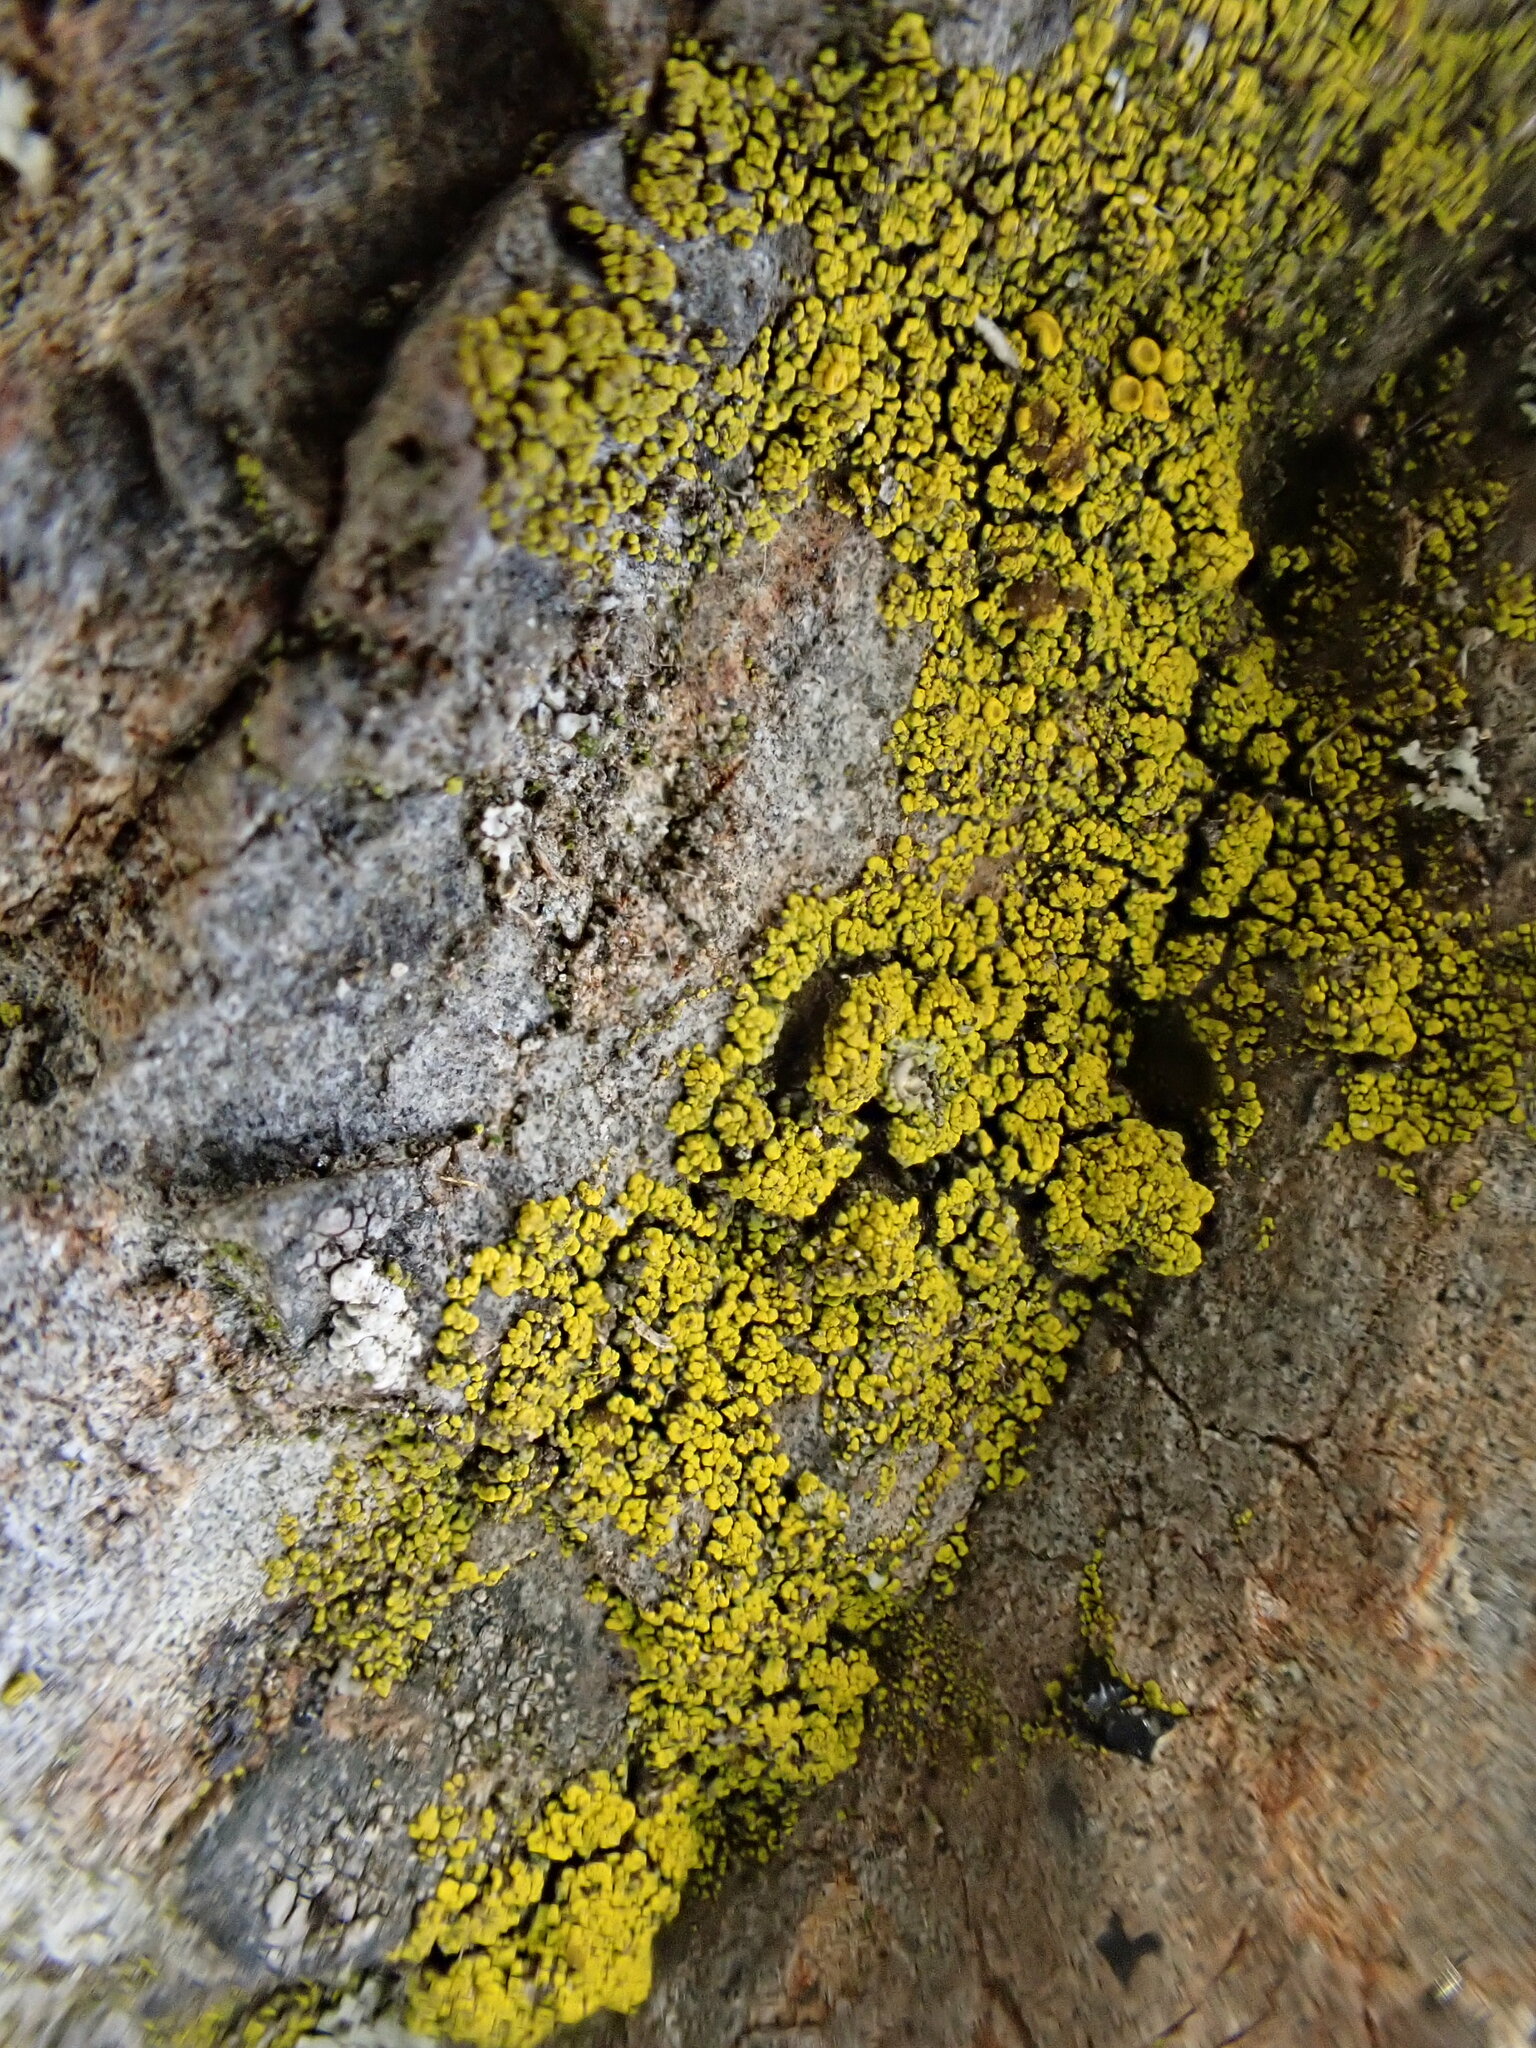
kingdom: Fungi
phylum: Ascomycota
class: Candelariomycetes
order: Candelariales
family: Candelariaceae
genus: Candelariella
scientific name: Candelariella vitellina
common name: Common goldspeck
